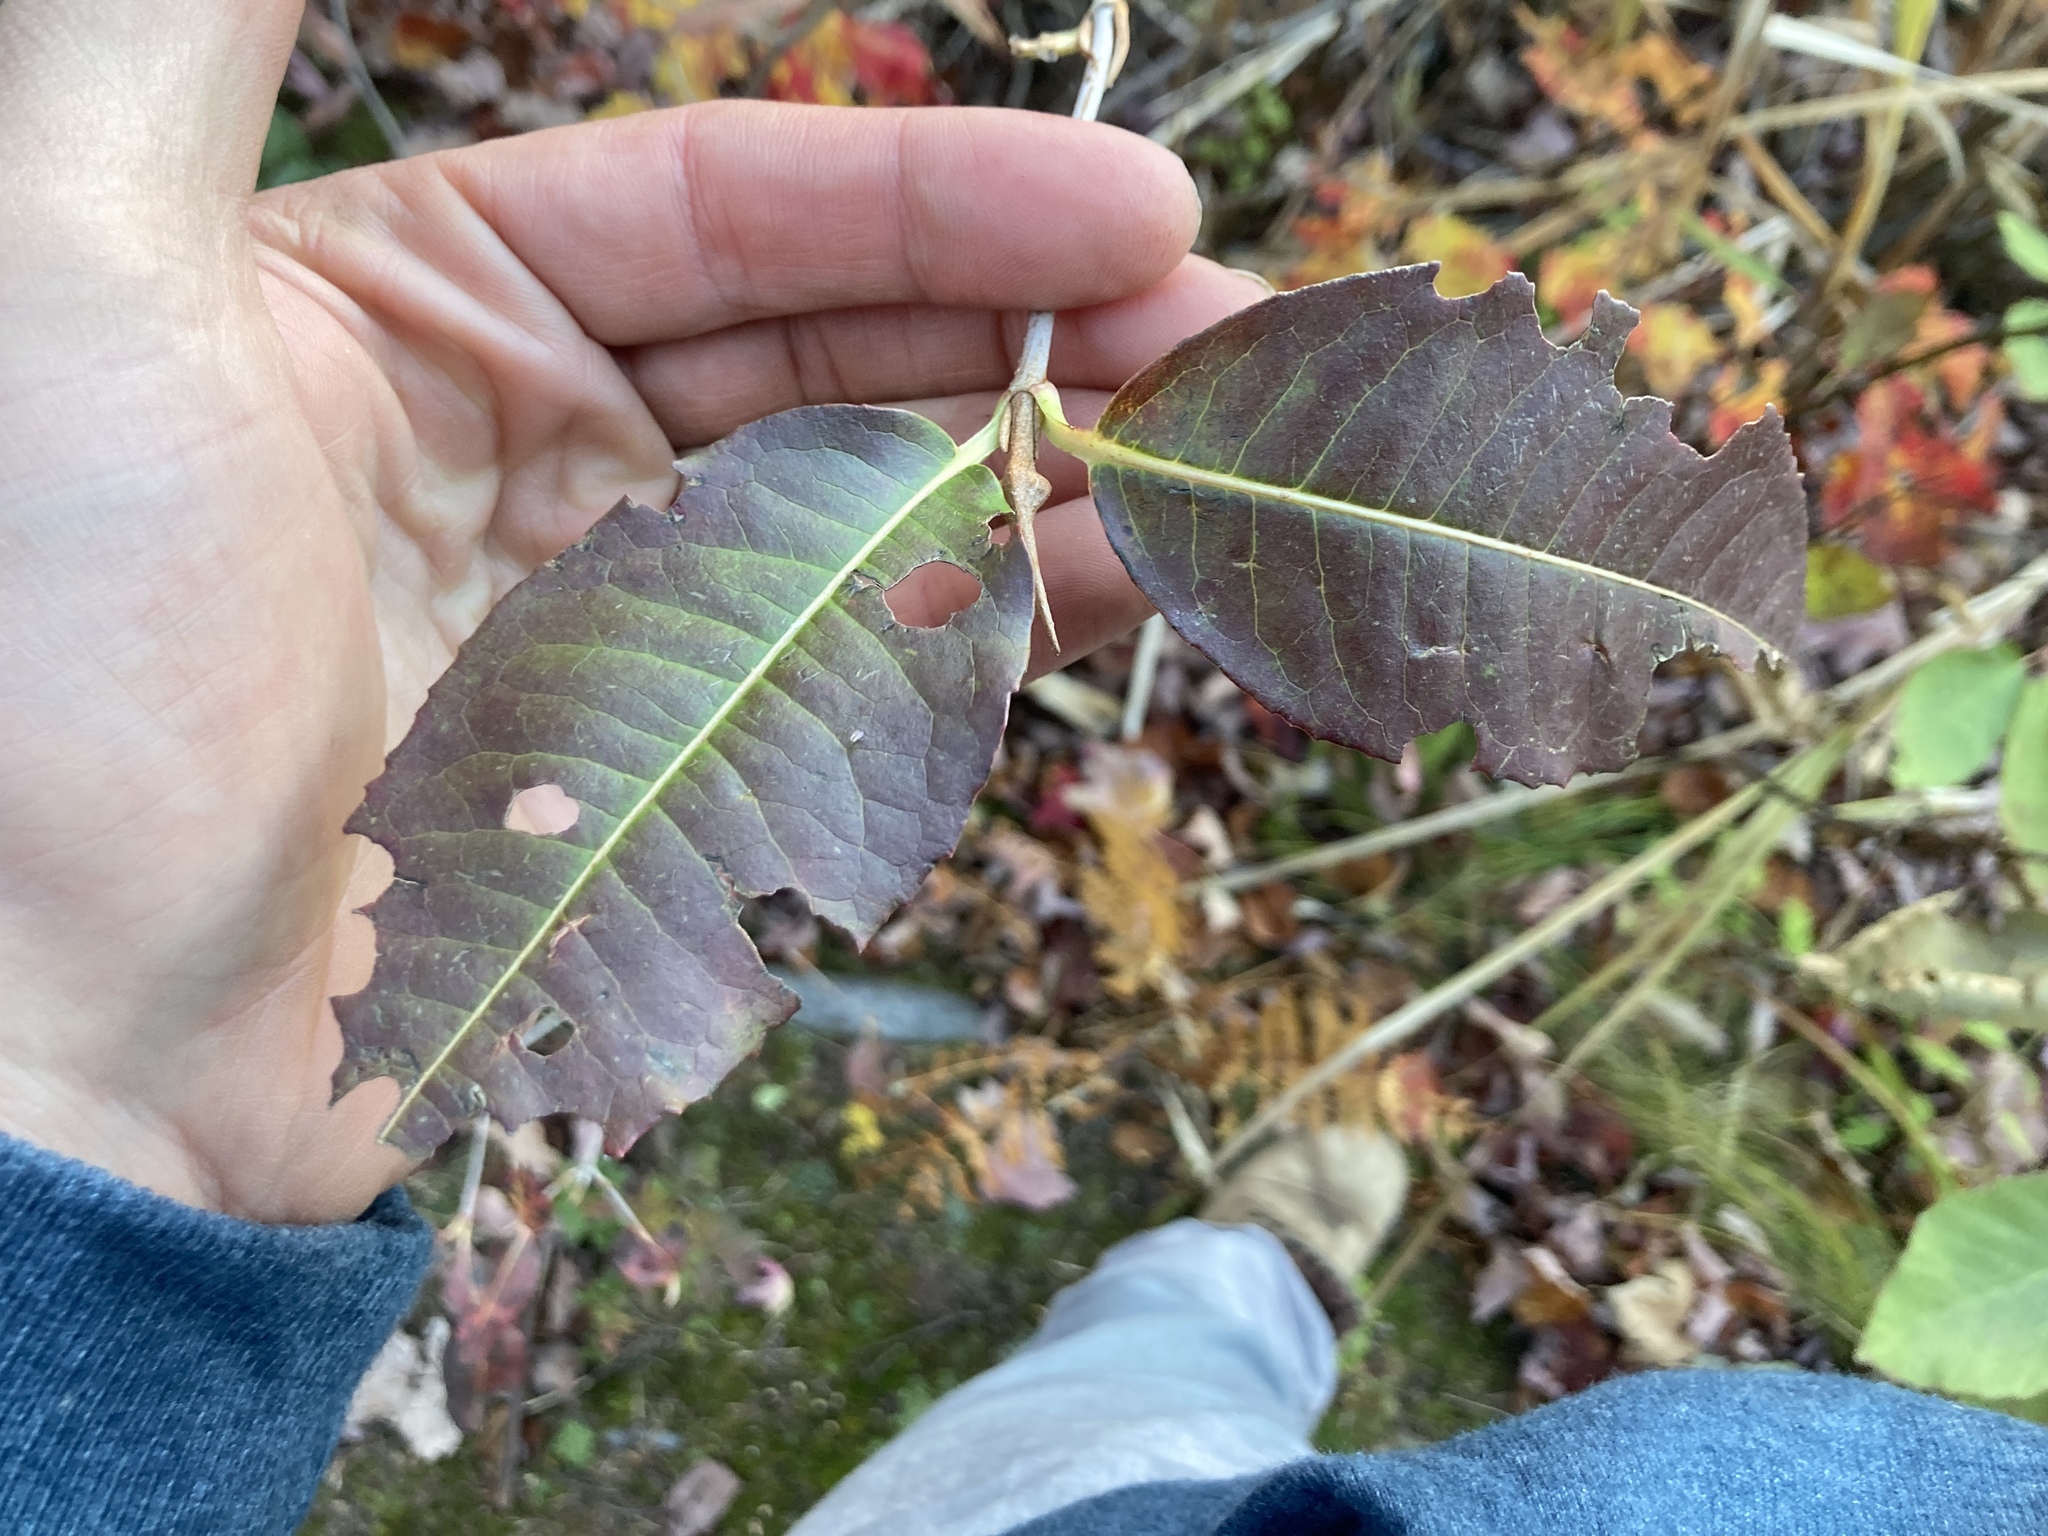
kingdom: Plantae
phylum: Tracheophyta
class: Magnoliopsida
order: Dipsacales
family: Viburnaceae
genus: Viburnum
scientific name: Viburnum cassinoides
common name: Swamp haw
